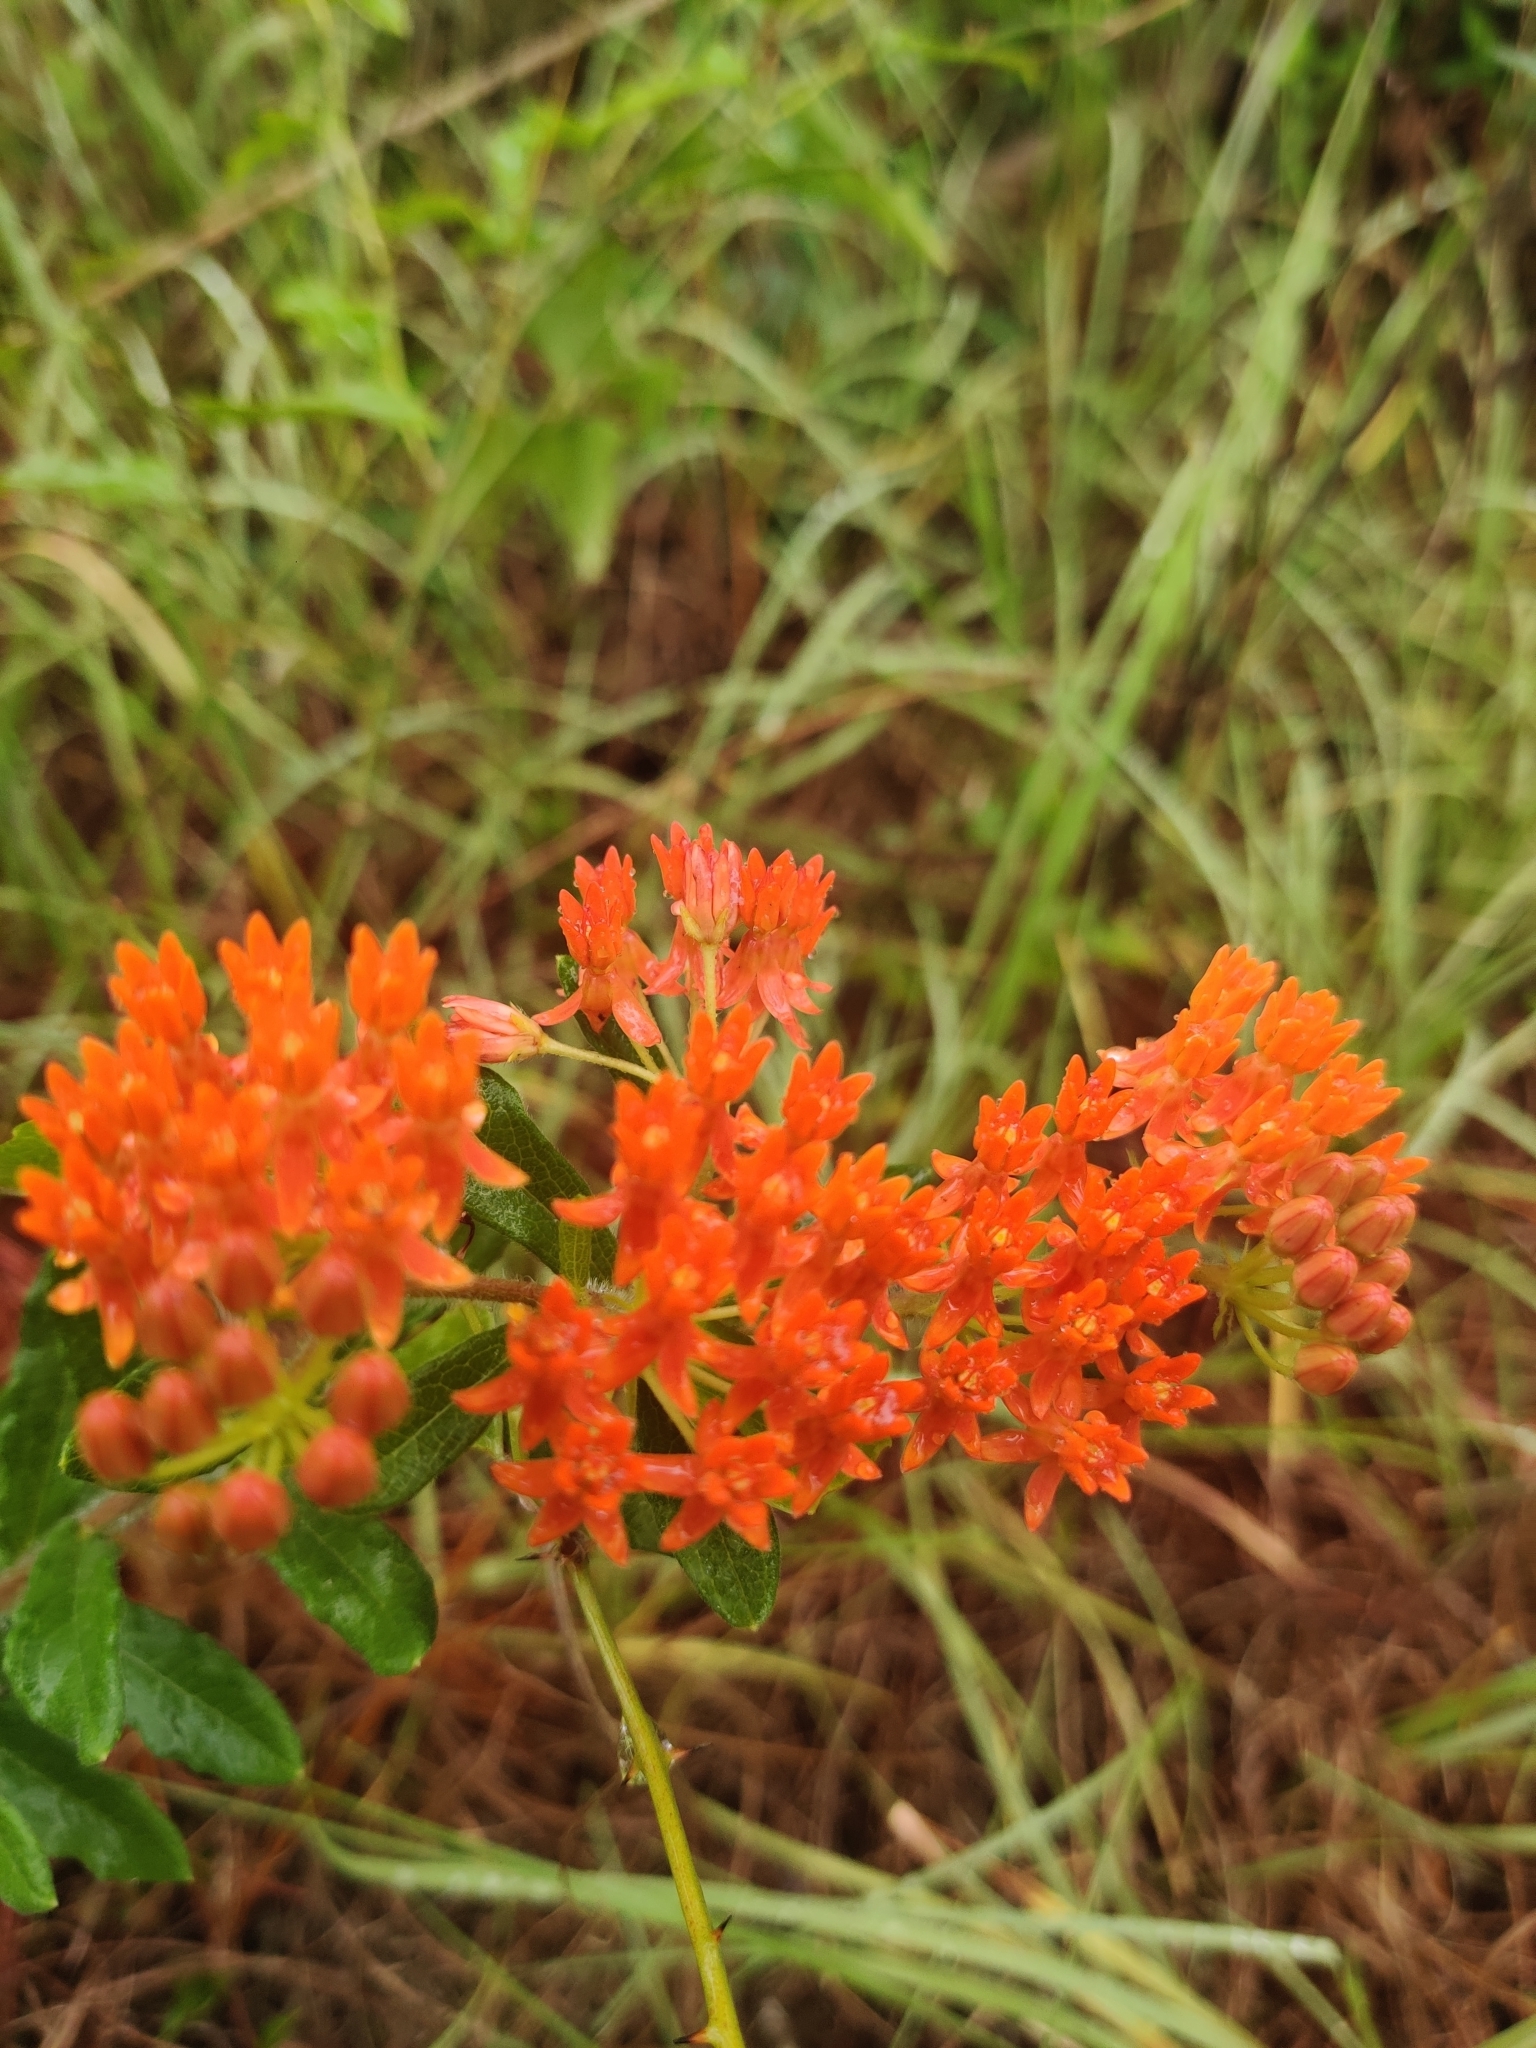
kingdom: Plantae
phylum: Tracheophyta
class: Magnoliopsida
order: Gentianales
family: Apocynaceae
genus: Asclepias
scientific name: Asclepias tuberosa
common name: Butterfly milkweed
